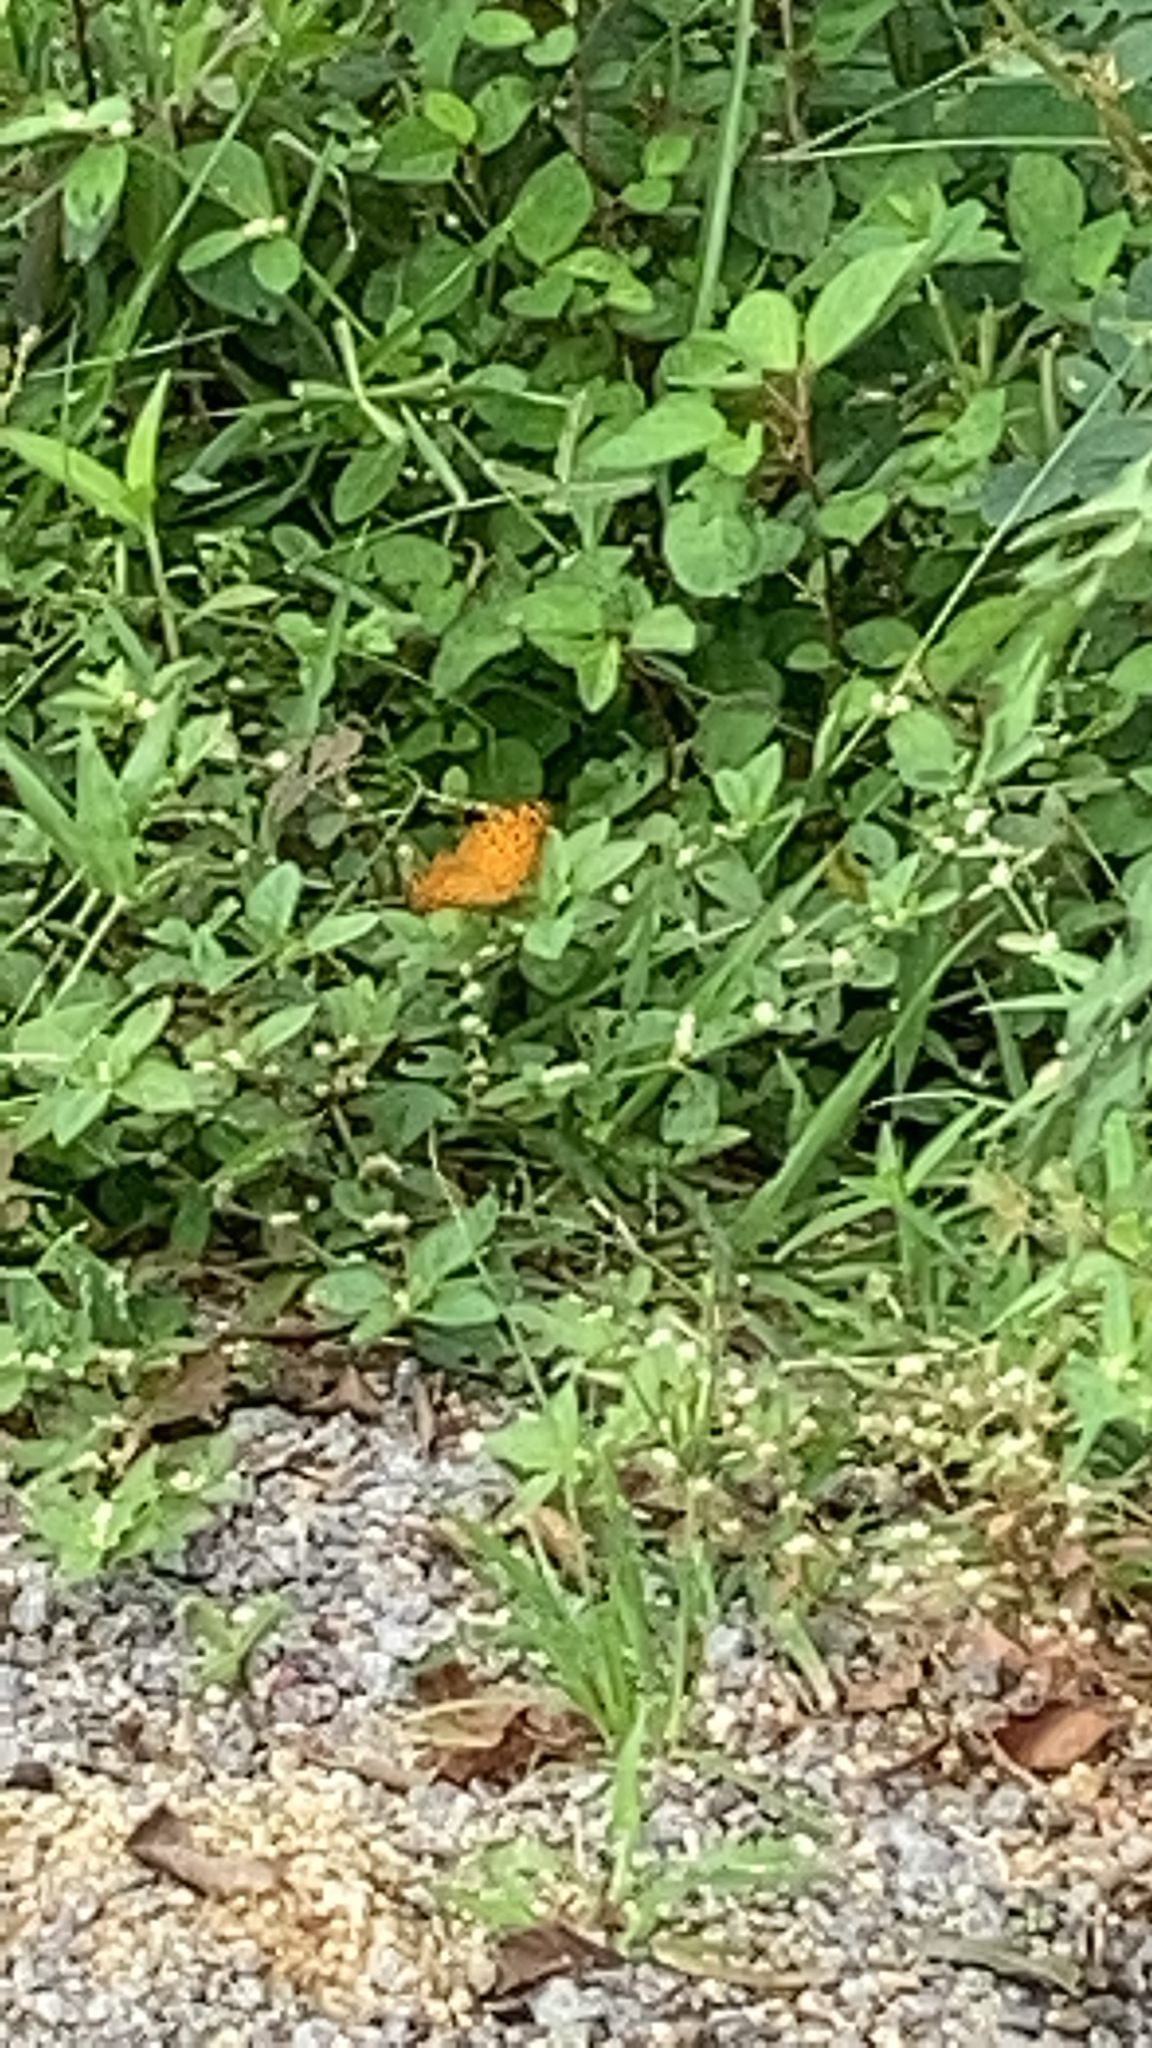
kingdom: Animalia
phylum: Arthropoda
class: Insecta
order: Lepidoptera
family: Nymphalidae
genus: Phalanta
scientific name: Phalanta phalantha
